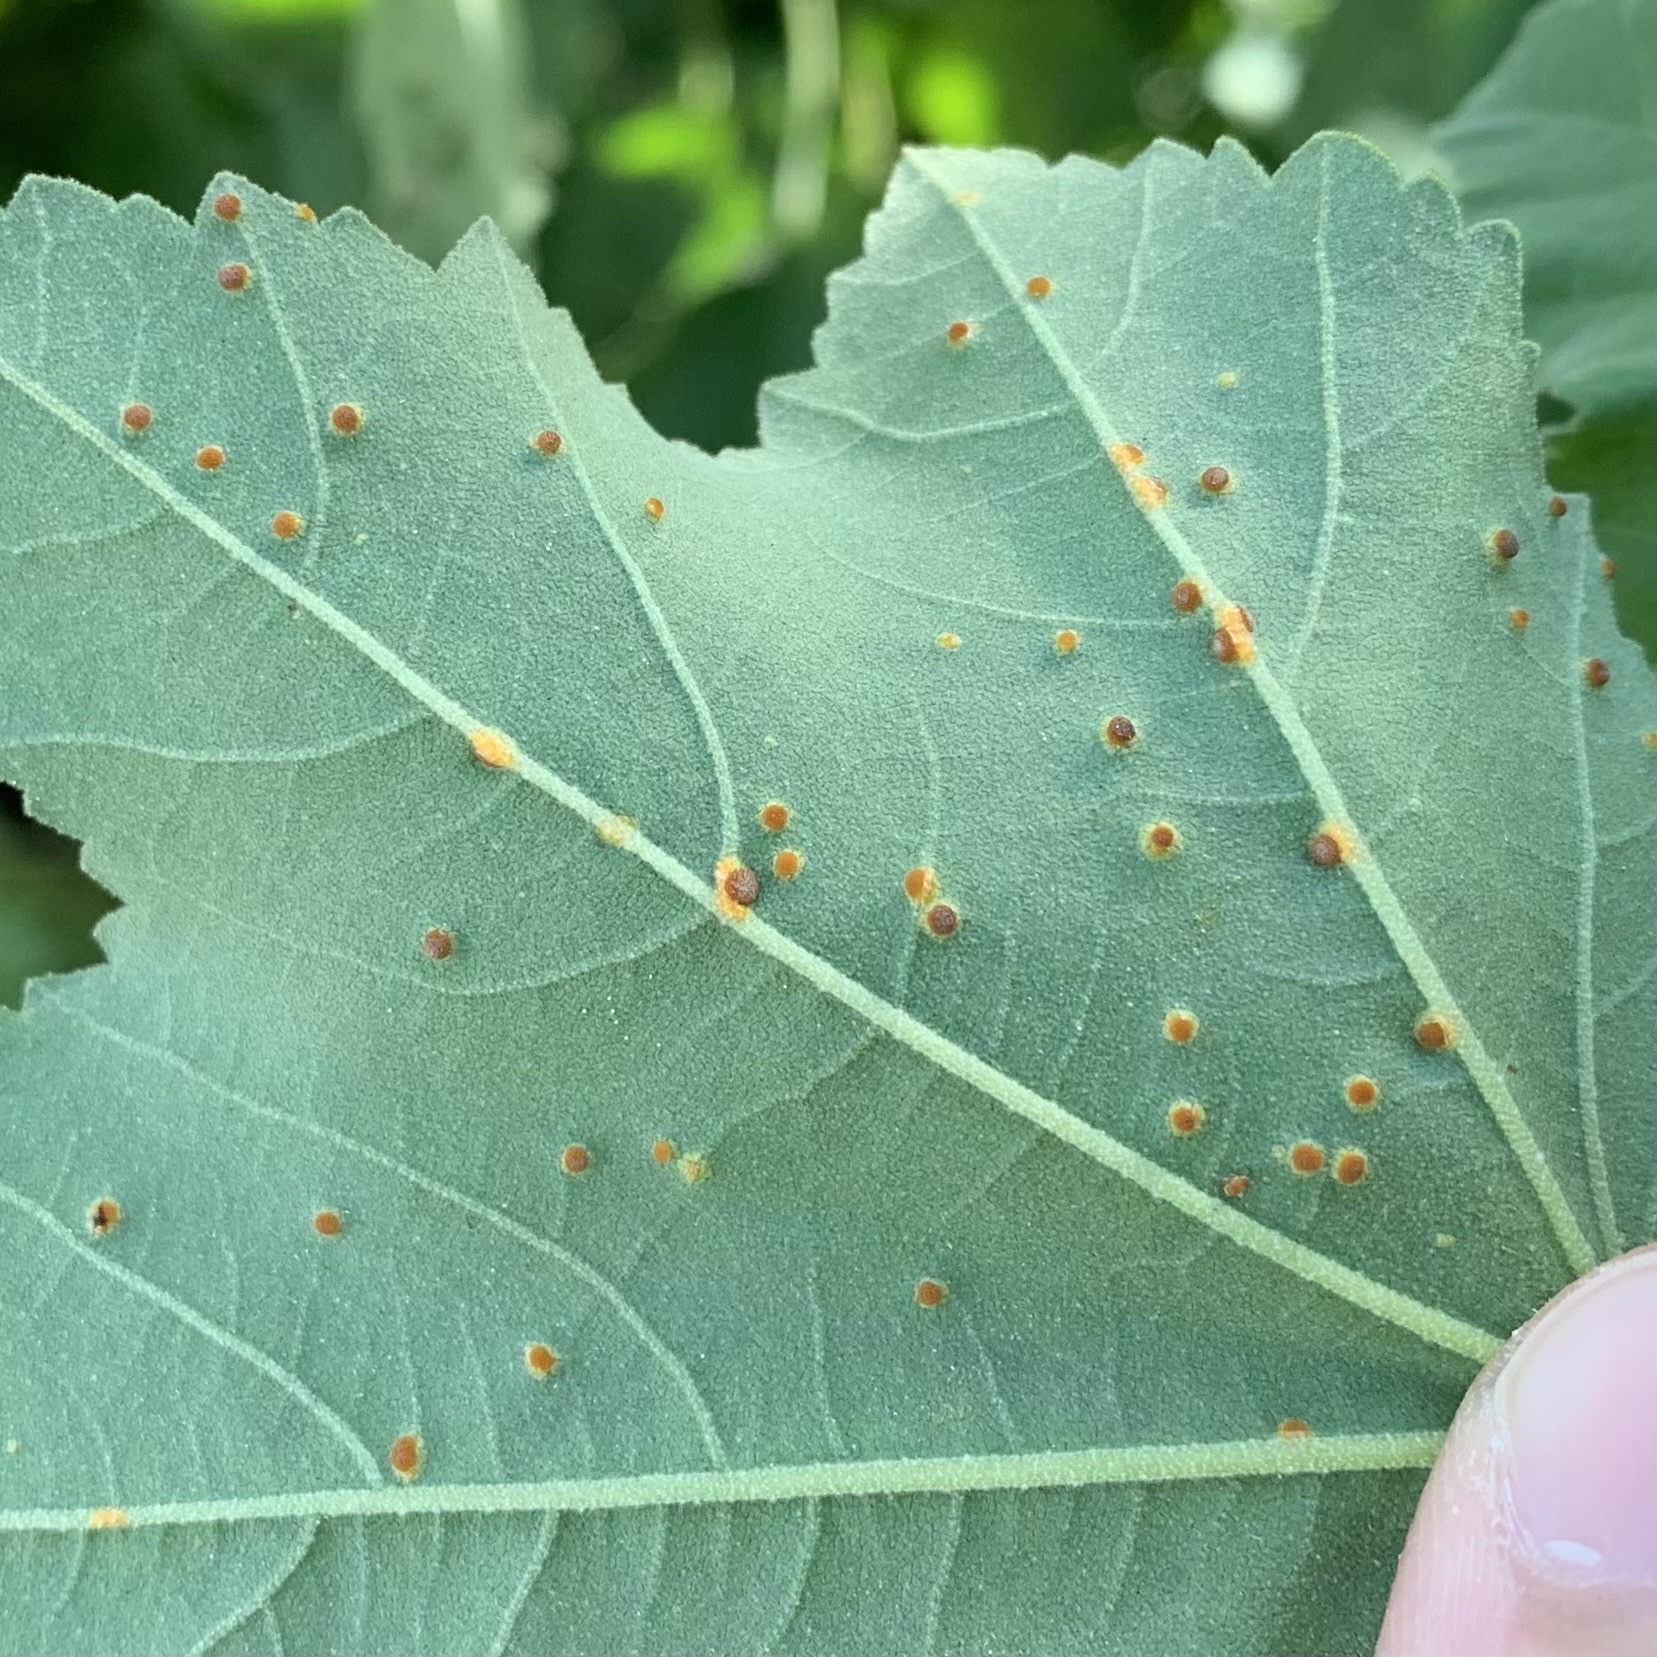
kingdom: Fungi
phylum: Basidiomycota
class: Pucciniomycetes
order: Pucciniales
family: Pucciniaceae
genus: Puccinia
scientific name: Puccinia malvacearum
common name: Hollyhock rust
